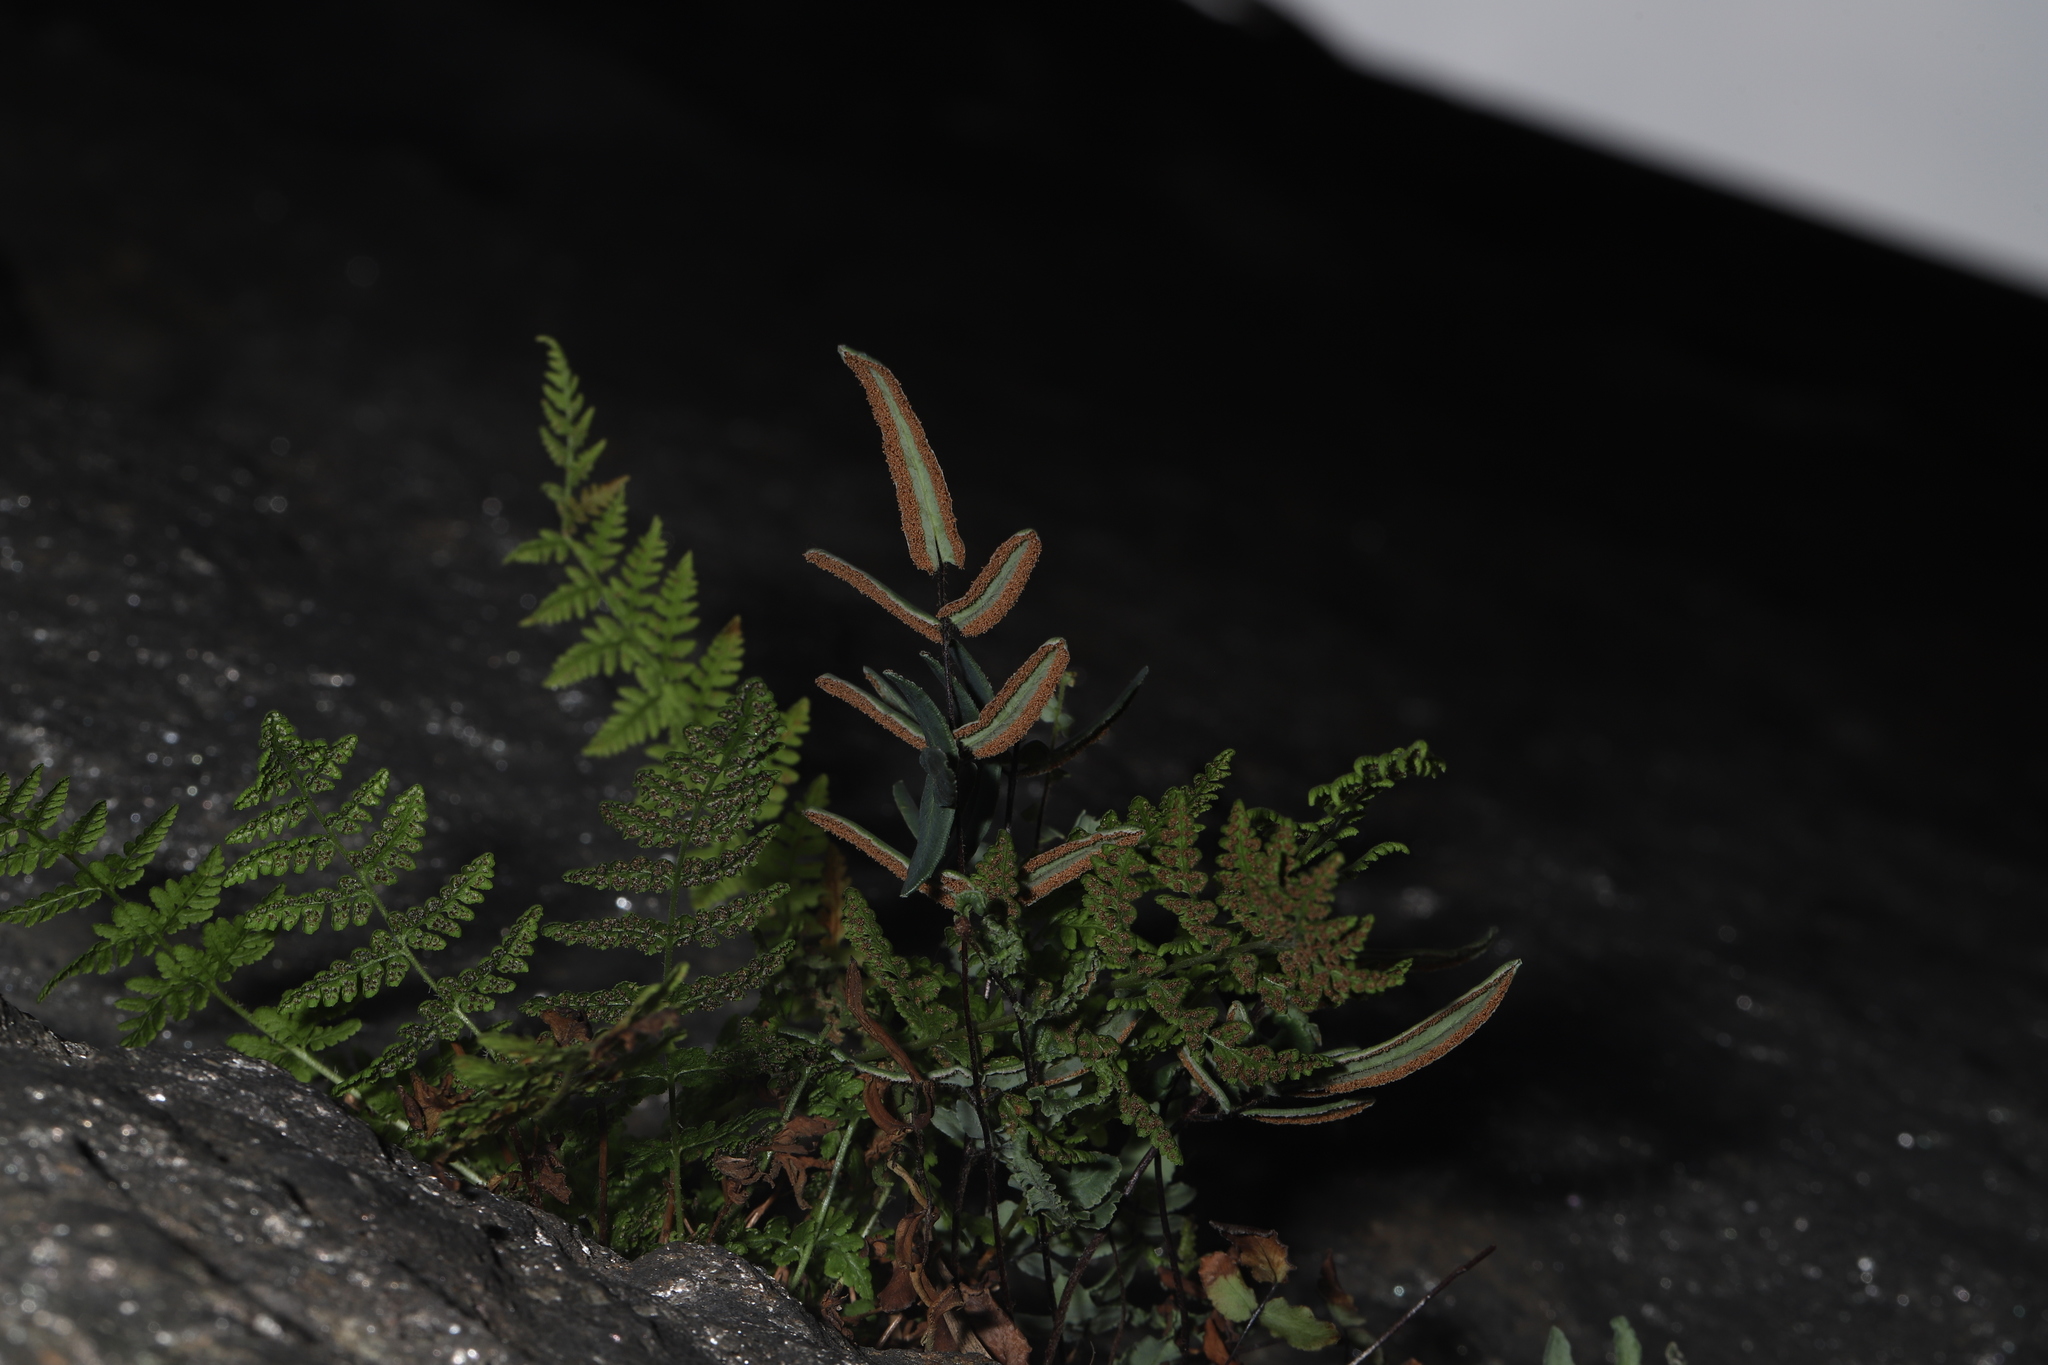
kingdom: Plantae
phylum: Tracheophyta
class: Polypodiopsida
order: Polypodiales
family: Pteridaceae
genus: Pellaea
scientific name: Pellaea atropurpurea
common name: Hairy cliffbrake
